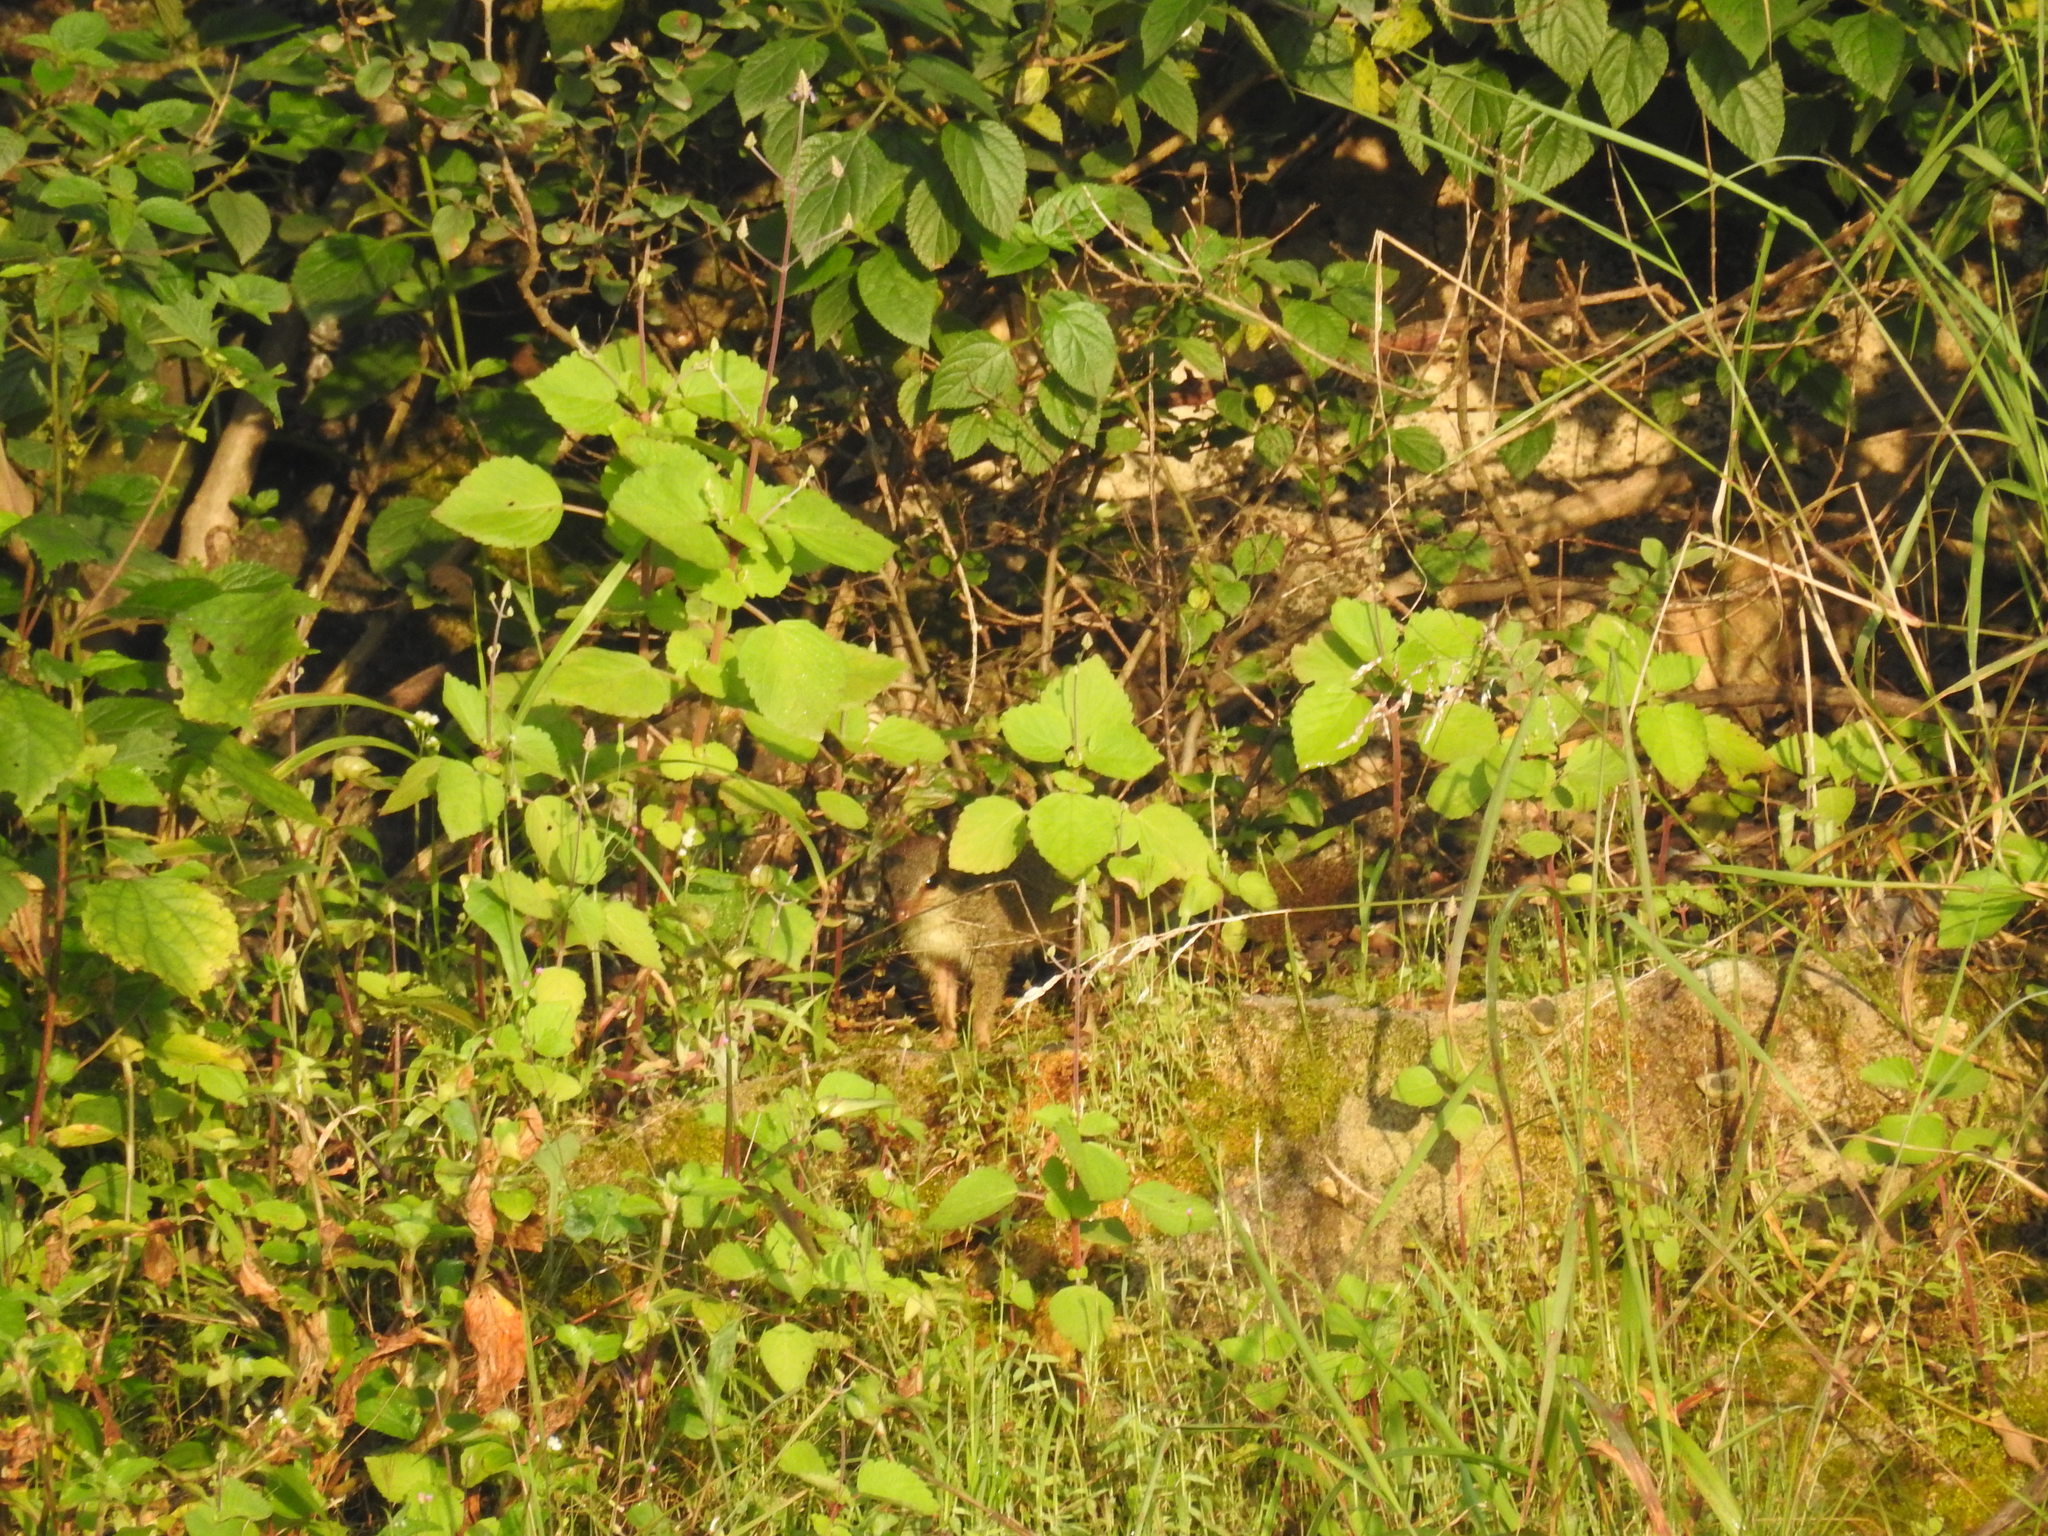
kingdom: Animalia
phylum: Chordata
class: Mammalia
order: Scandentia
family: Tupaiidae
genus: Anathana
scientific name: Anathana ellioti
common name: Madras treeshrew
